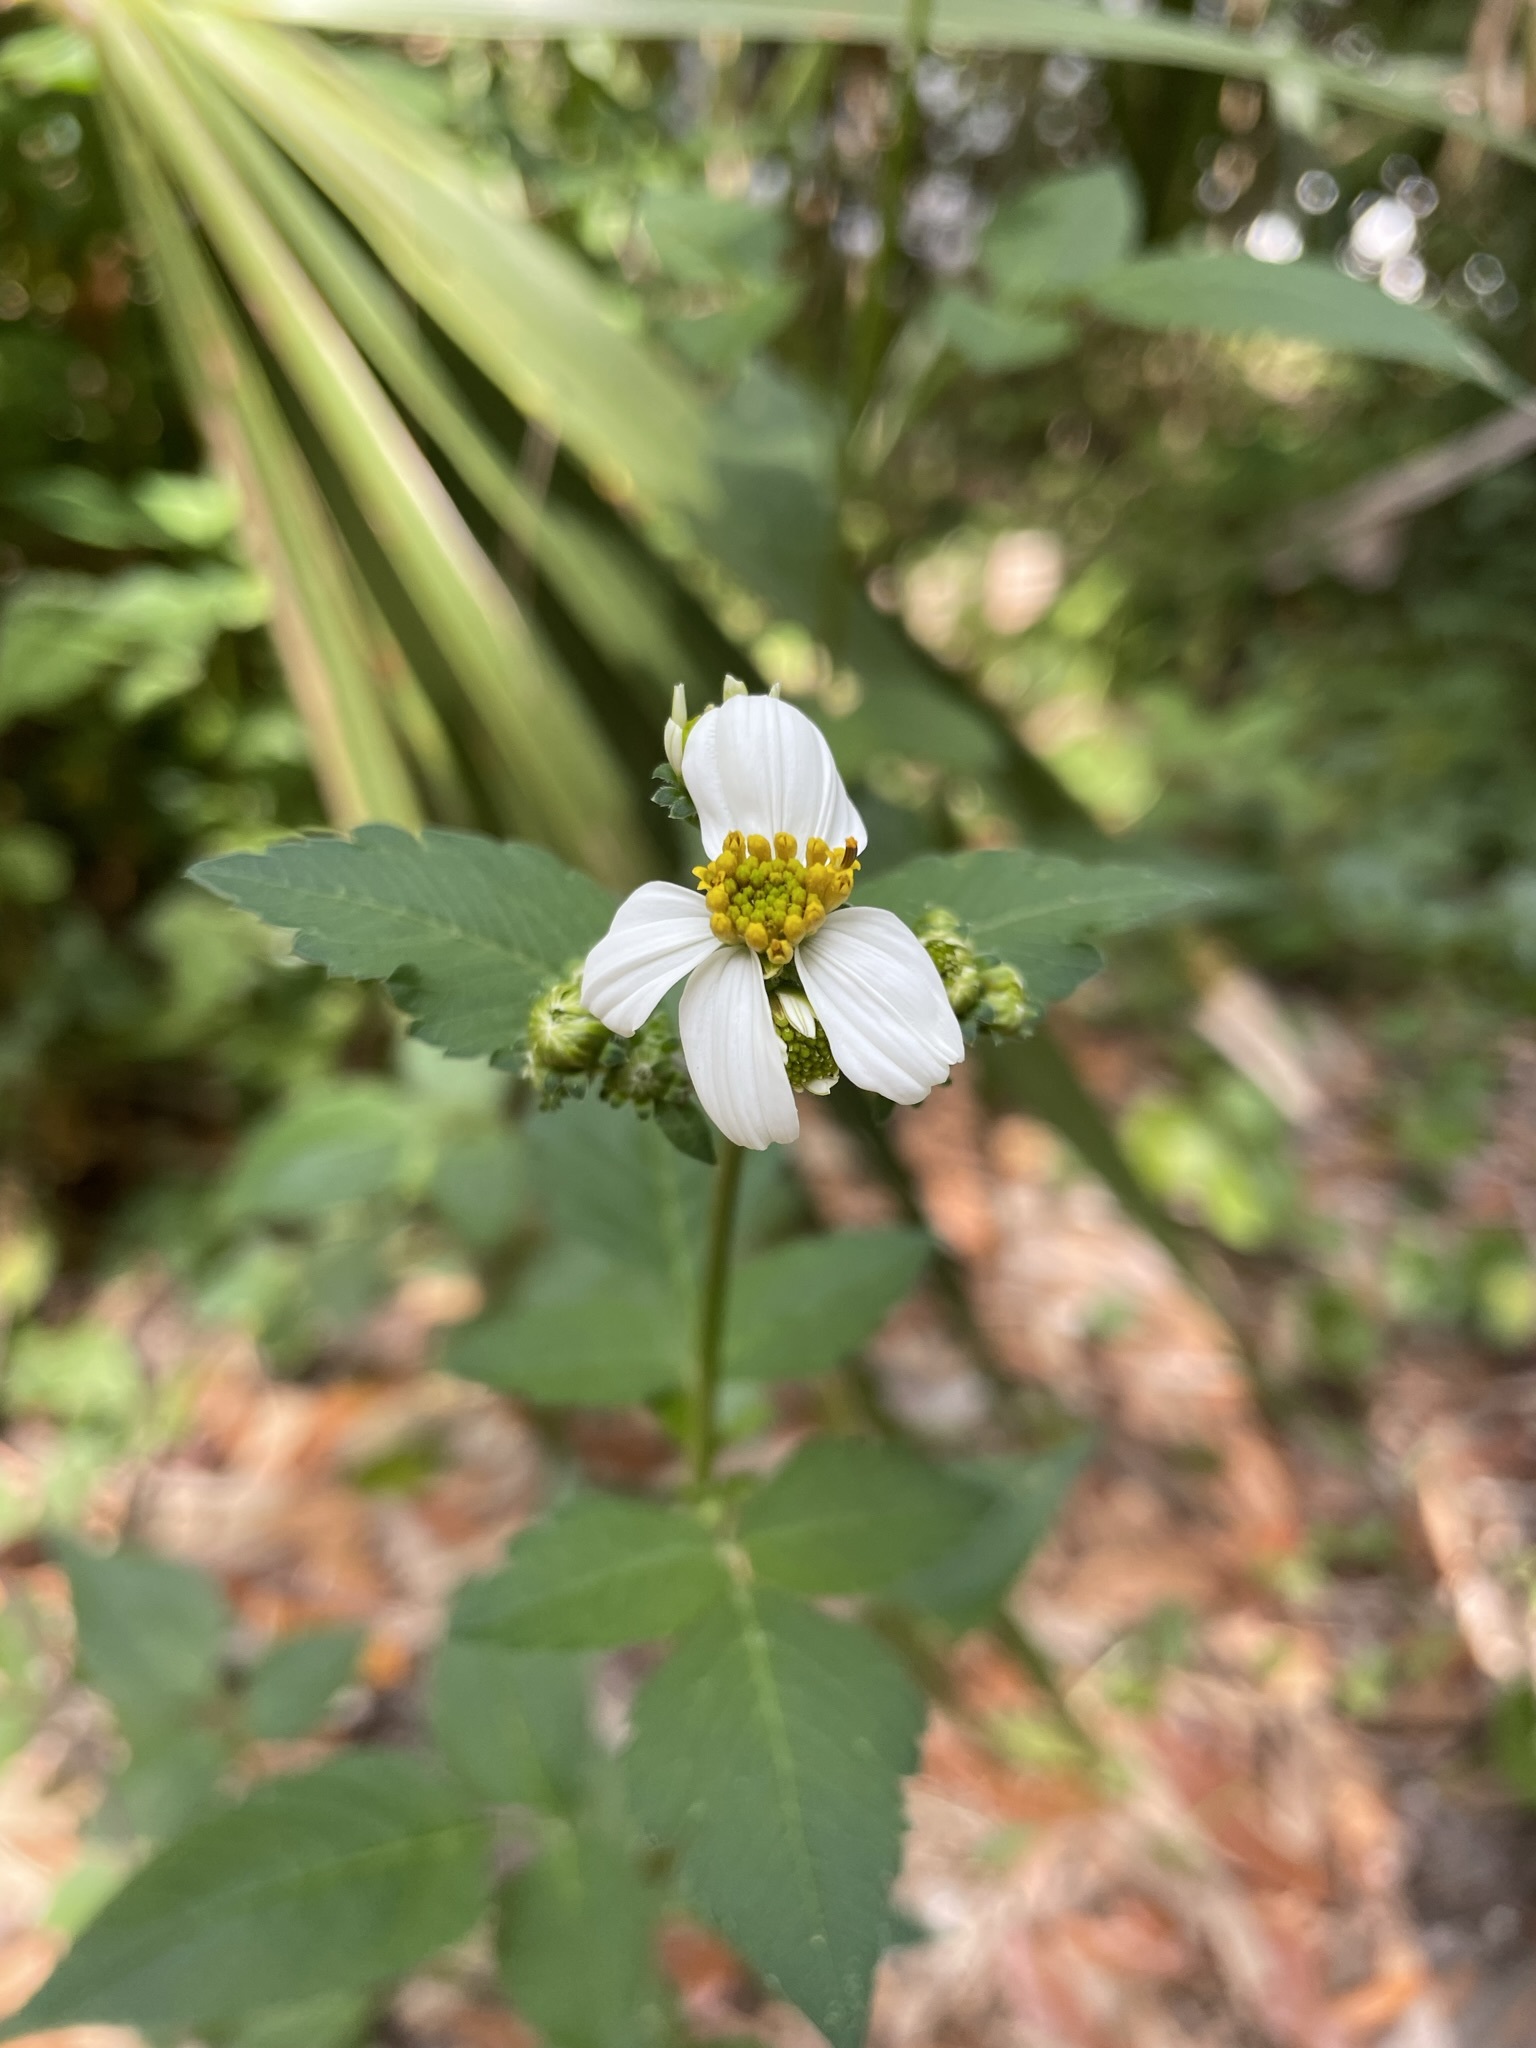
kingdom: Plantae
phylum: Tracheophyta
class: Magnoliopsida
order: Asterales
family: Asteraceae
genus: Bidens
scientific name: Bidens alba
